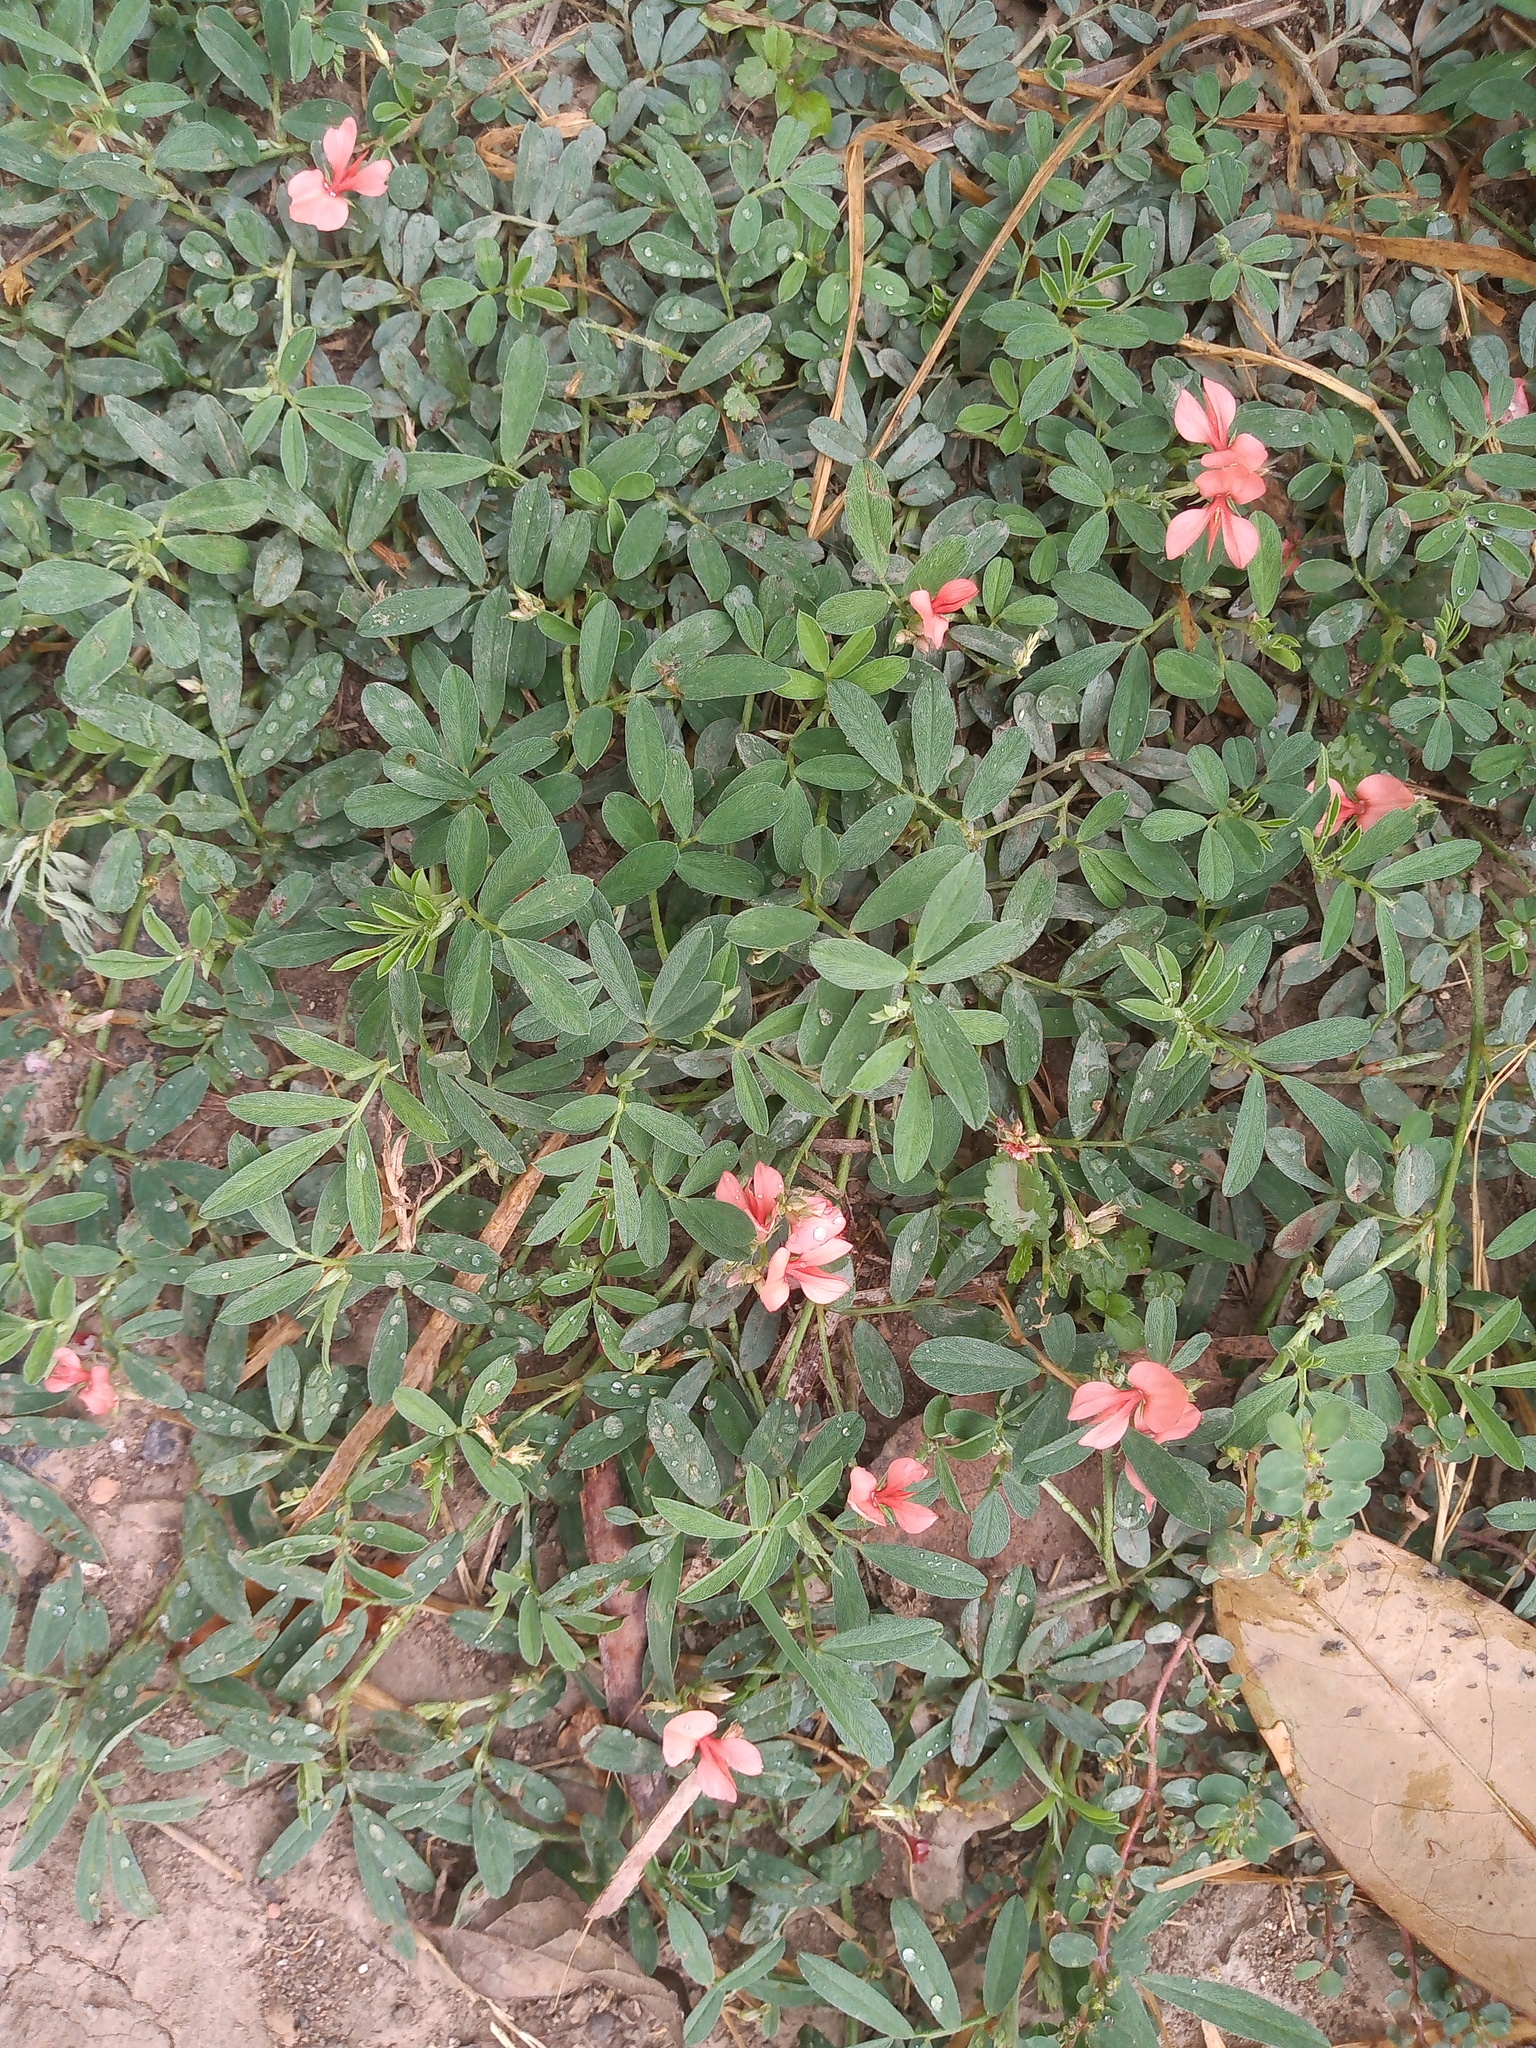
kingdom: Plantae
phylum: Tracheophyta
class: Magnoliopsida
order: Fabales
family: Fabaceae
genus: Indigofera
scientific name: Indigofera miniata
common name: Coast indigo
